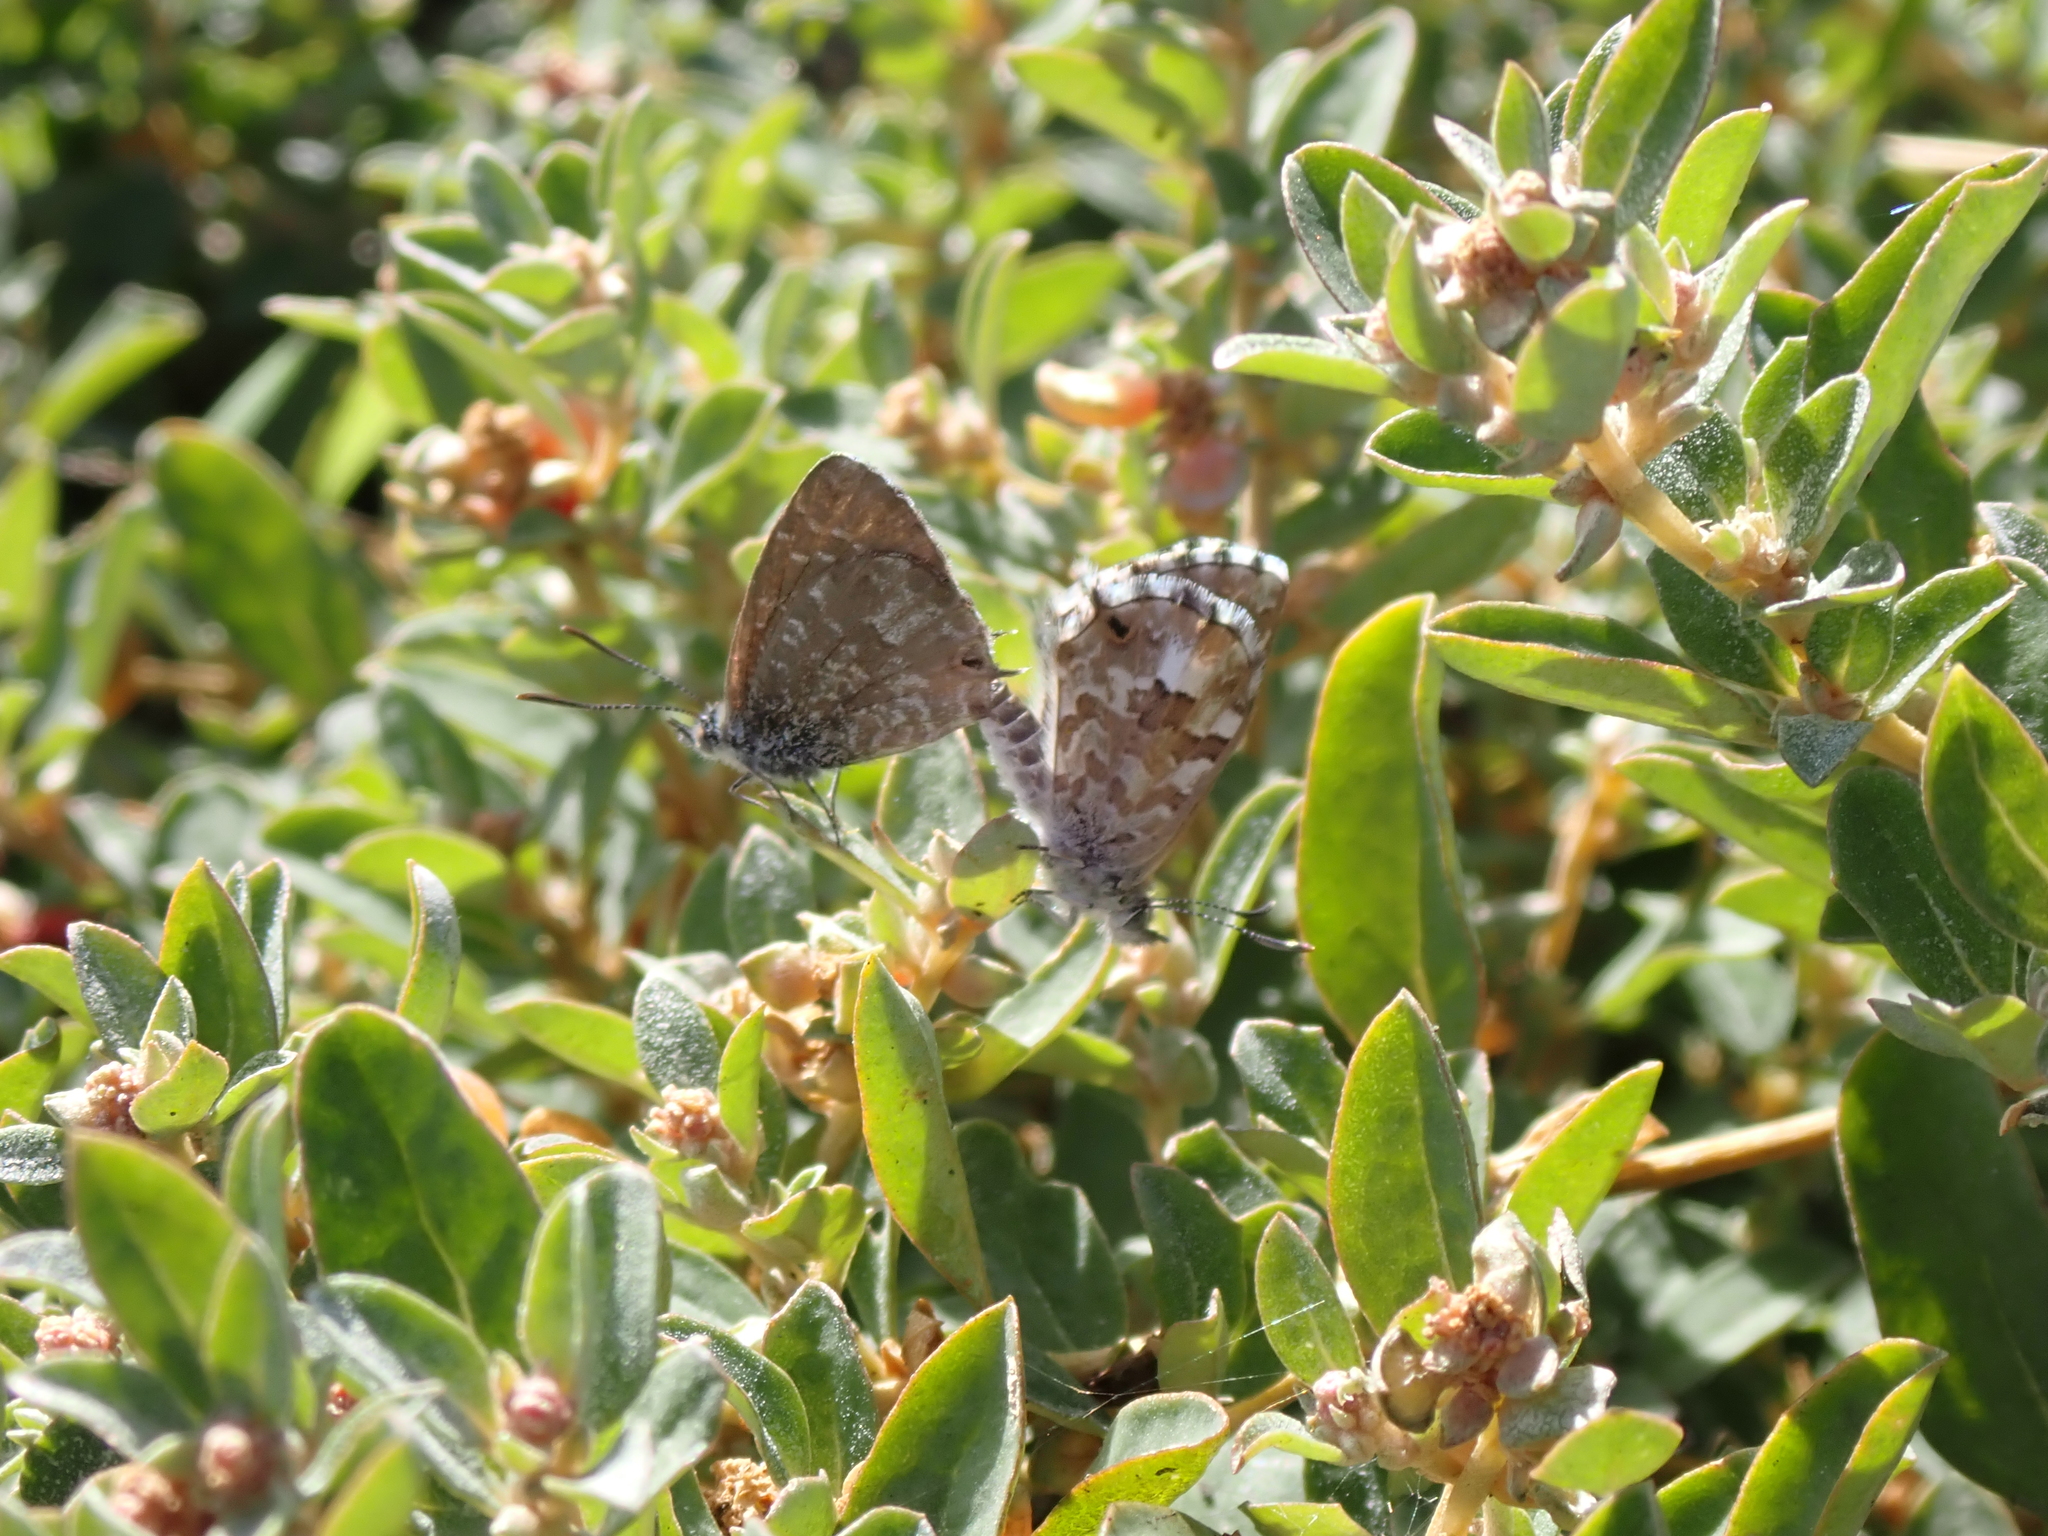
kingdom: Animalia
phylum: Arthropoda
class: Insecta
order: Lepidoptera
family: Lycaenidae
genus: Theclinesthes
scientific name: Theclinesthes serpentata
